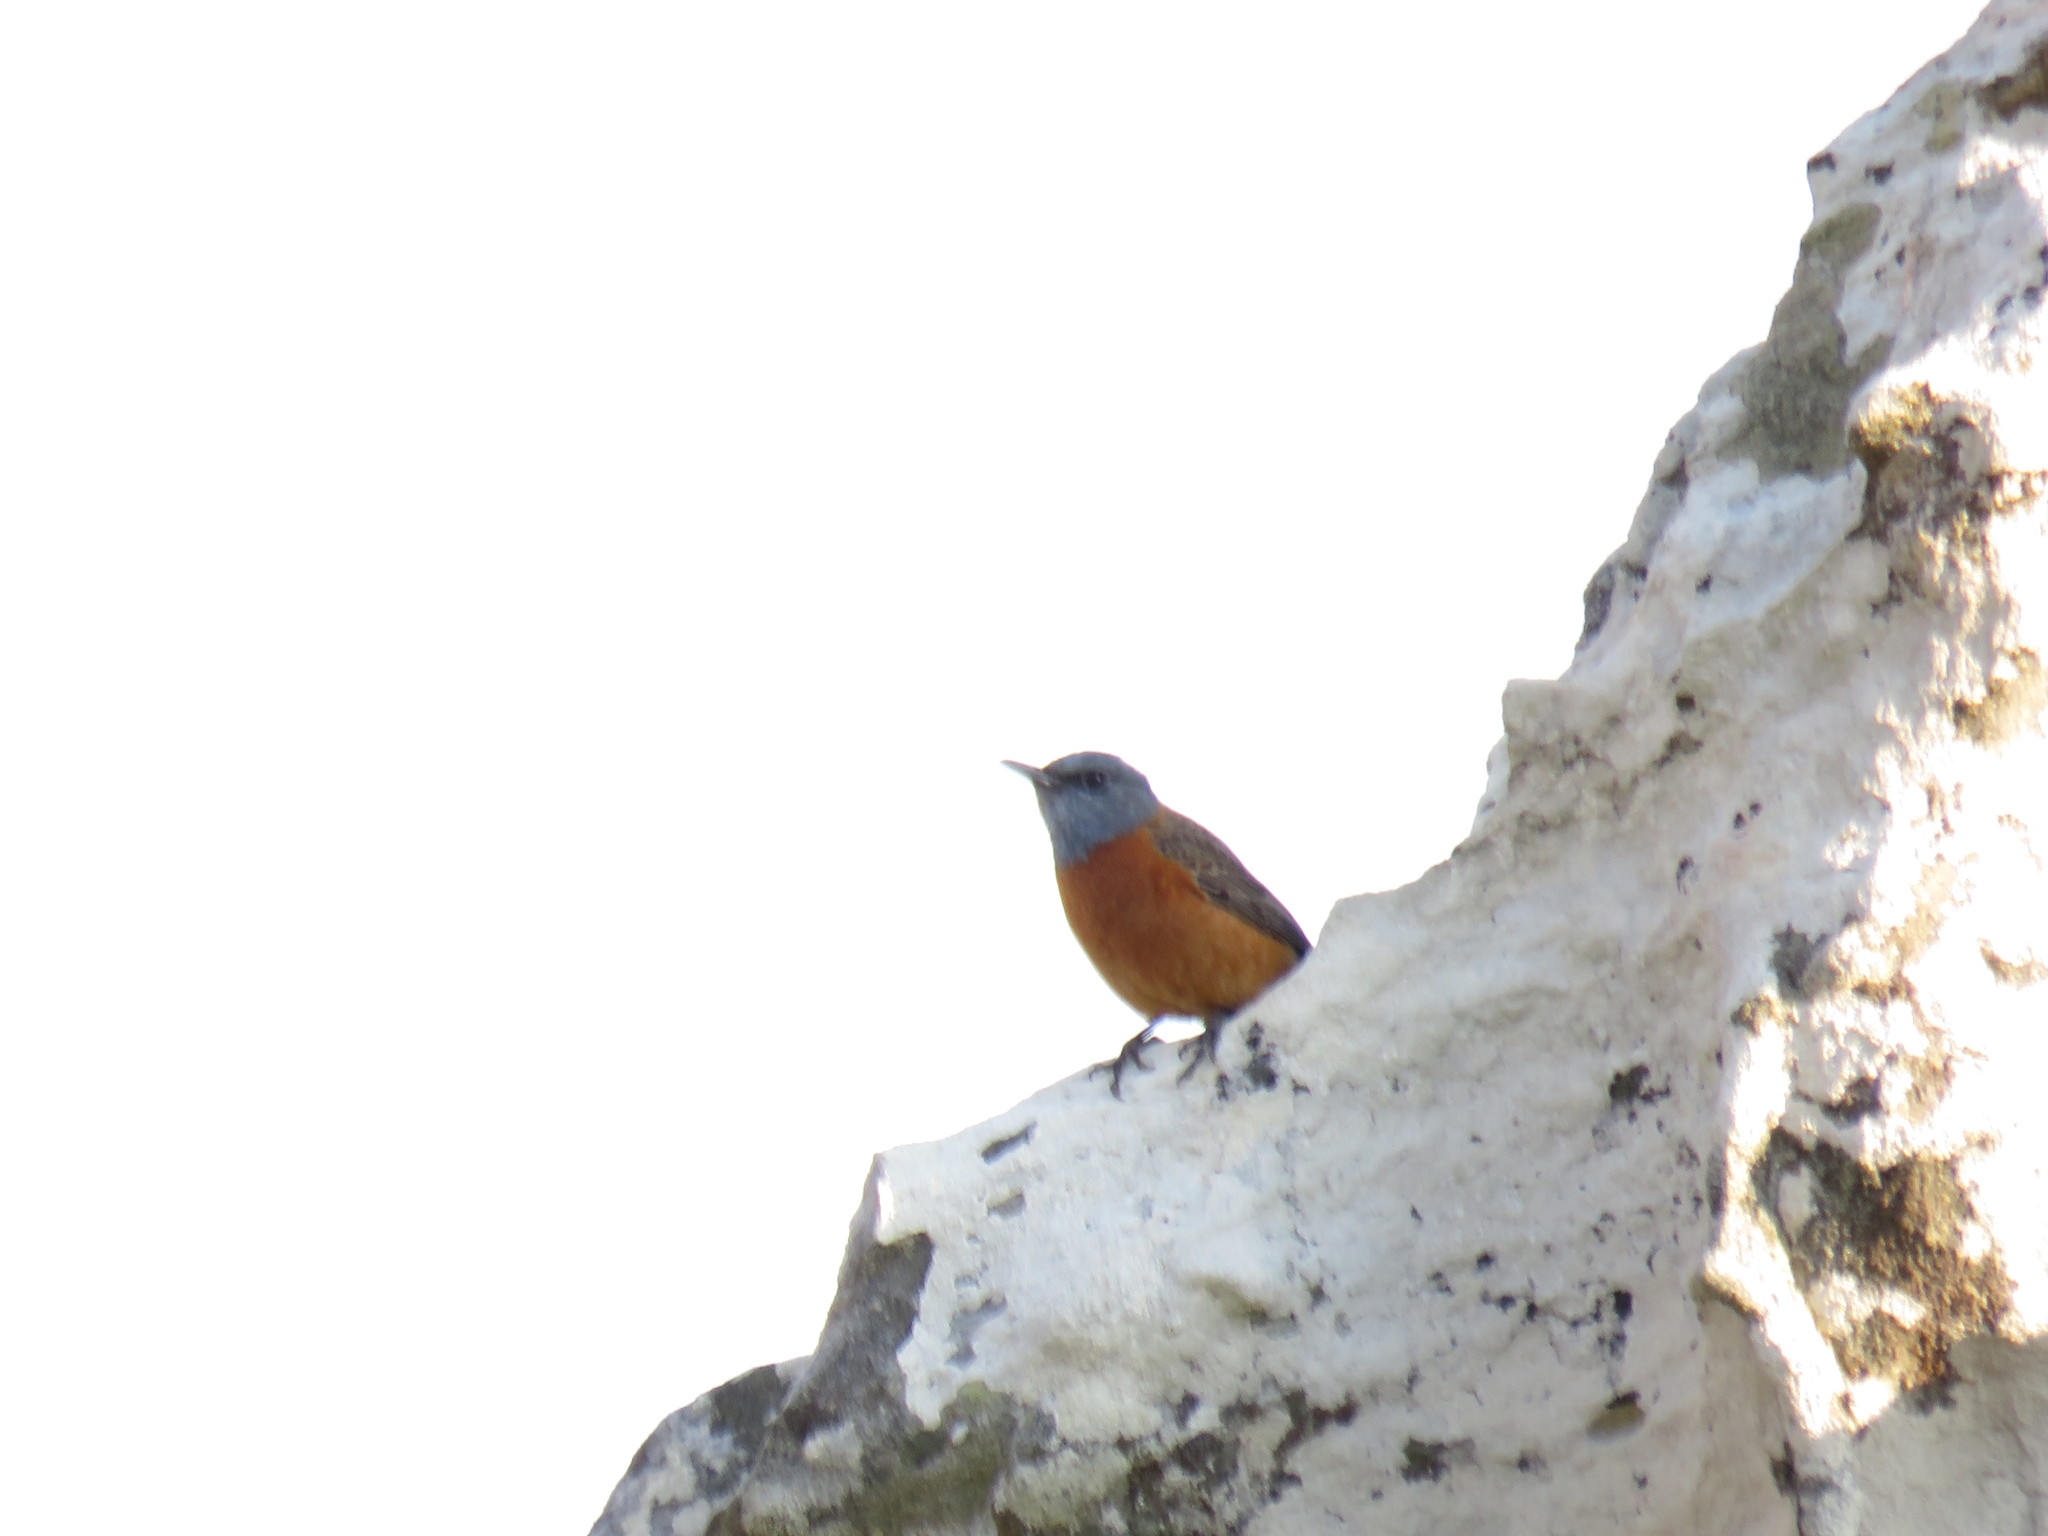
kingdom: Animalia
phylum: Chordata
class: Aves
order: Passeriformes
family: Muscicapidae
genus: Monticola
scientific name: Monticola rupestris
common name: Cape rock thrush
